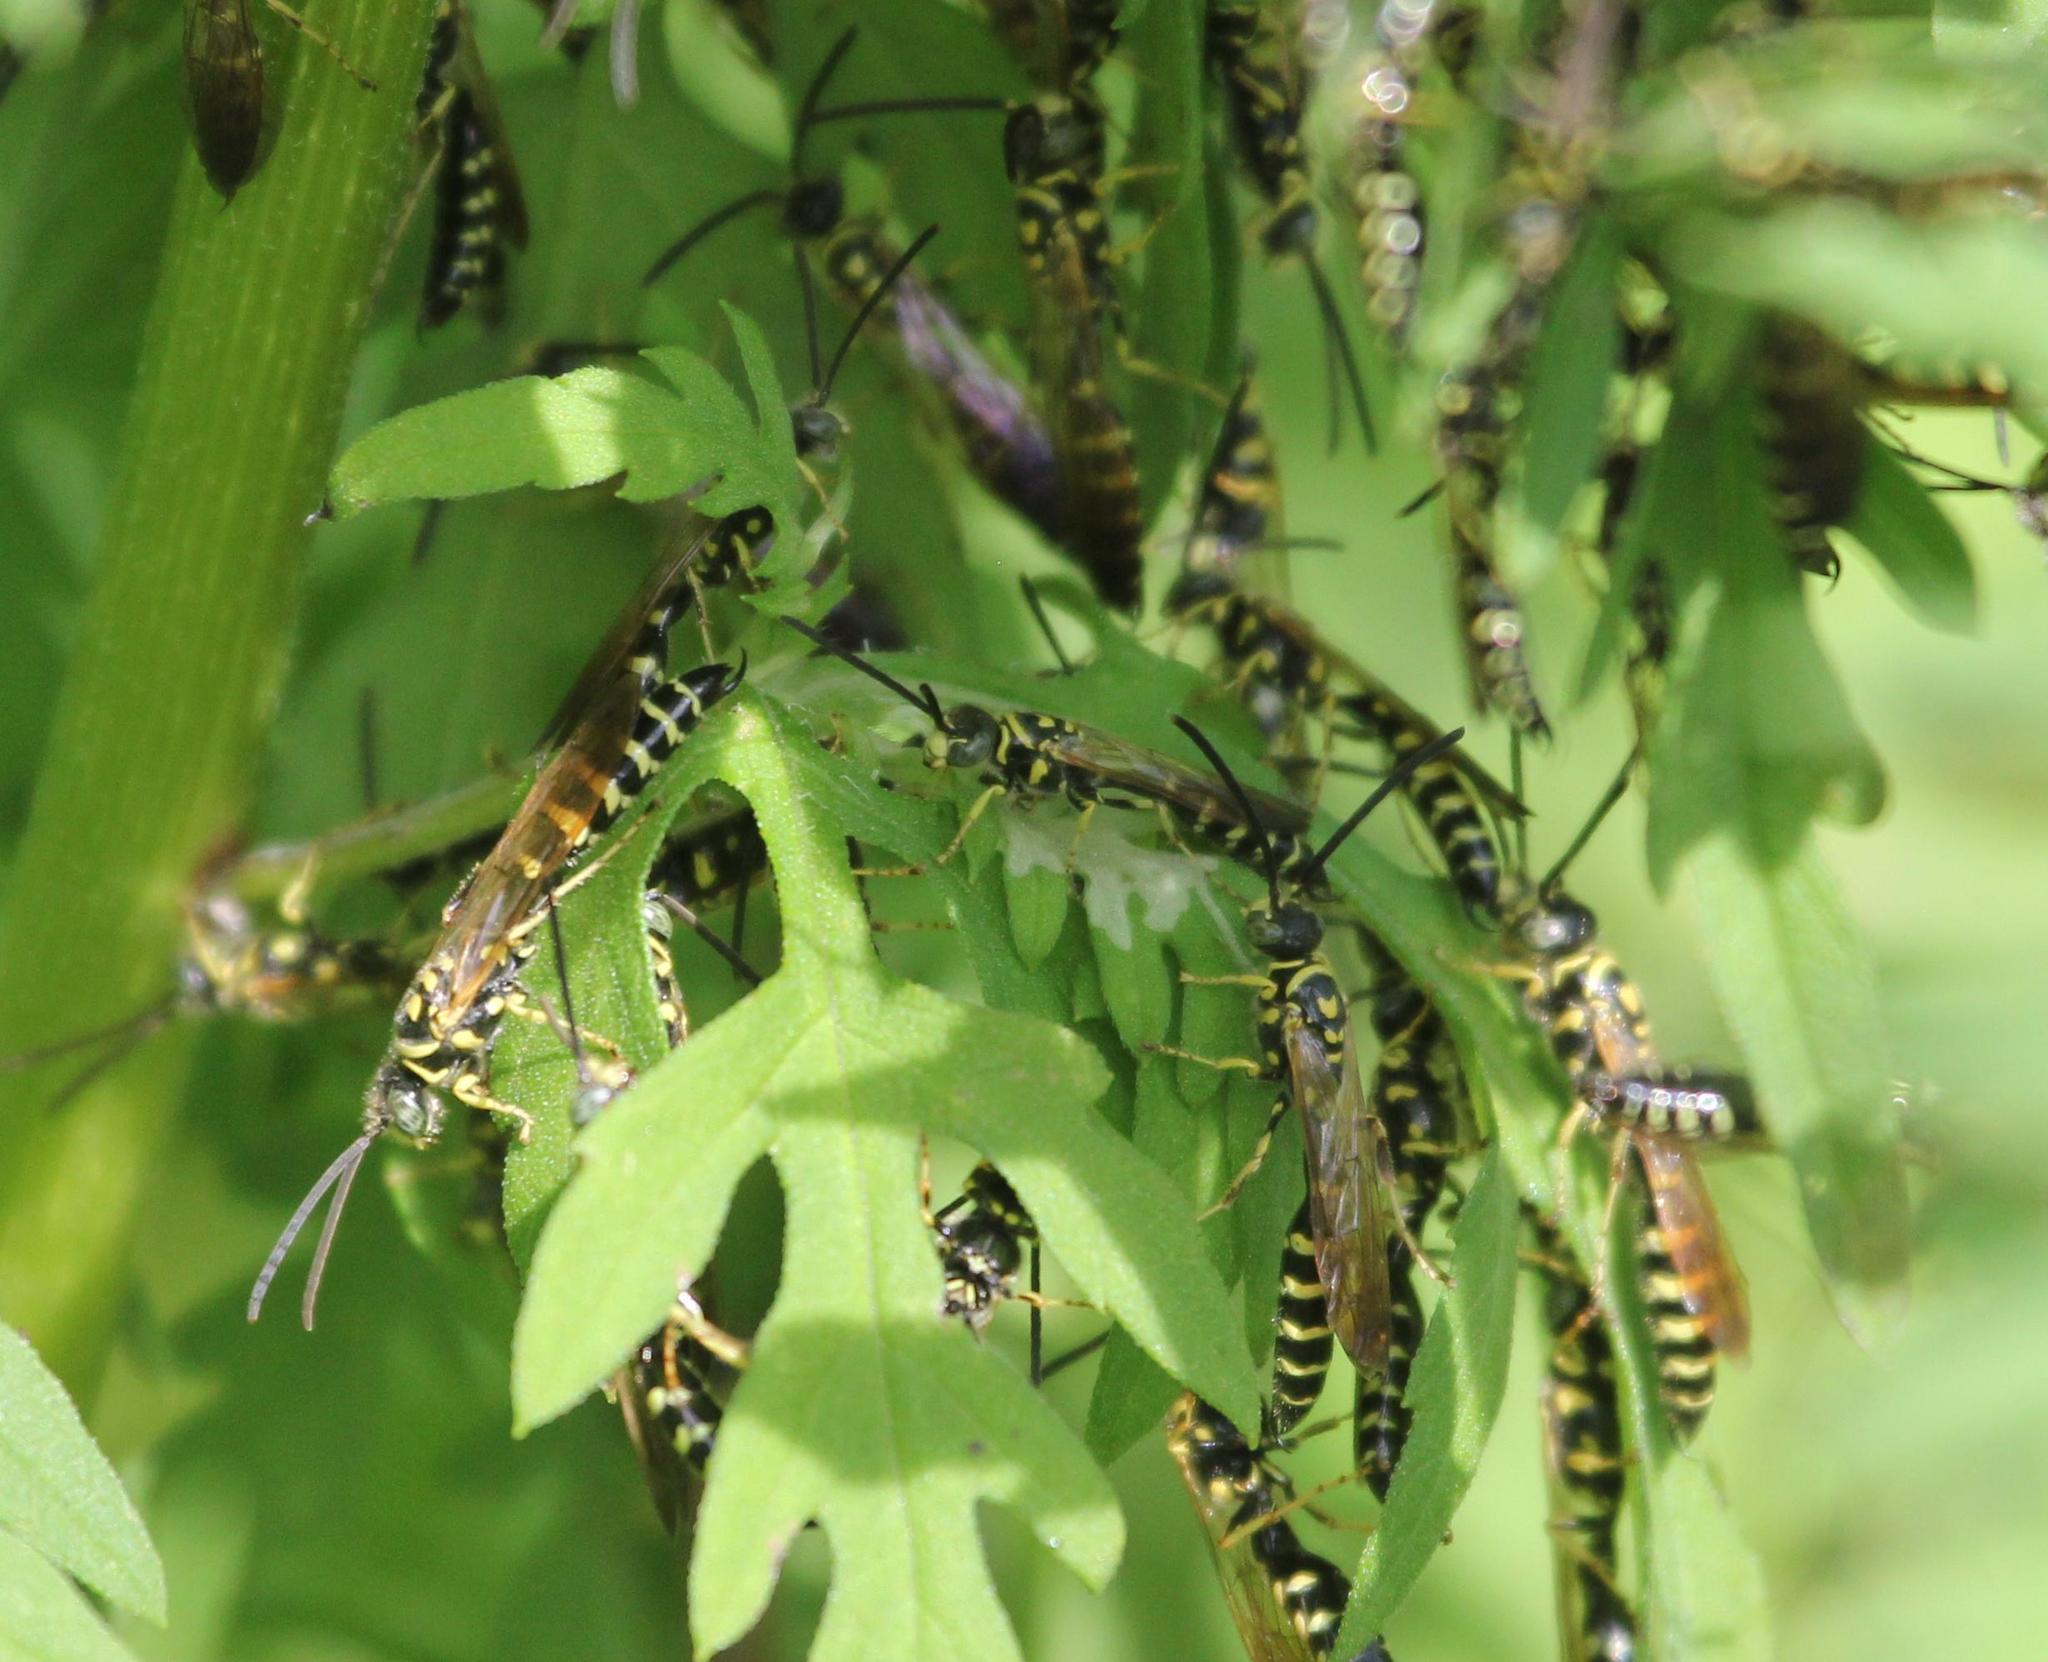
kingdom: Animalia
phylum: Arthropoda
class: Insecta
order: Hymenoptera
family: Tiphiidae
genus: Myzinum
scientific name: Myzinum
